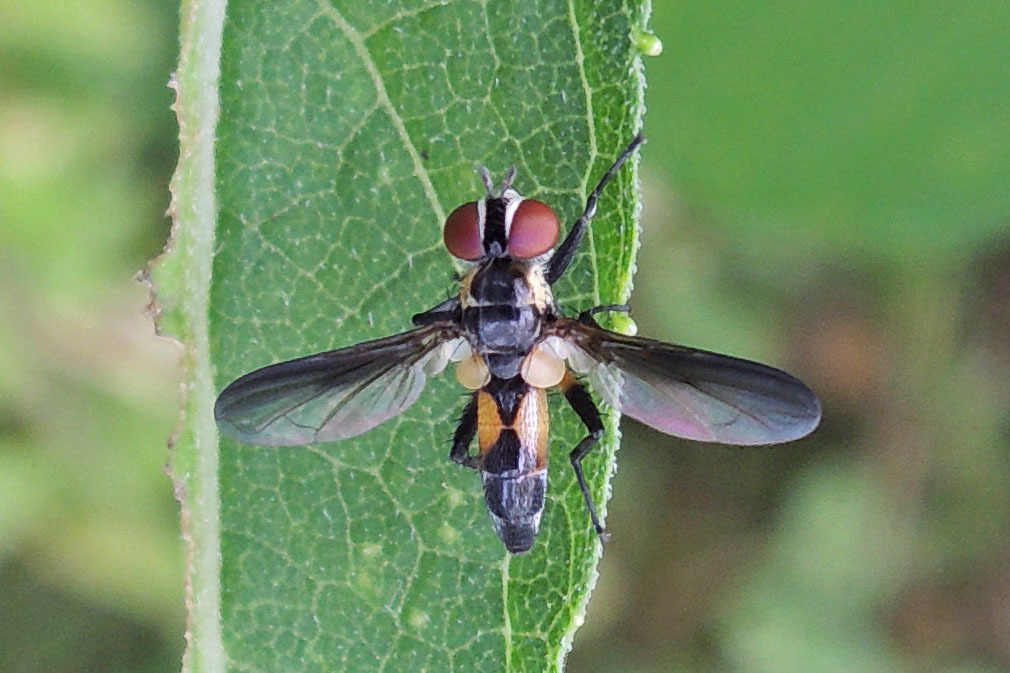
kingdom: Animalia
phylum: Arthropoda
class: Insecta
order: Diptera
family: Tachinidae
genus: Xanthomelanodes
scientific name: Xanthomelanodes arcuatus
